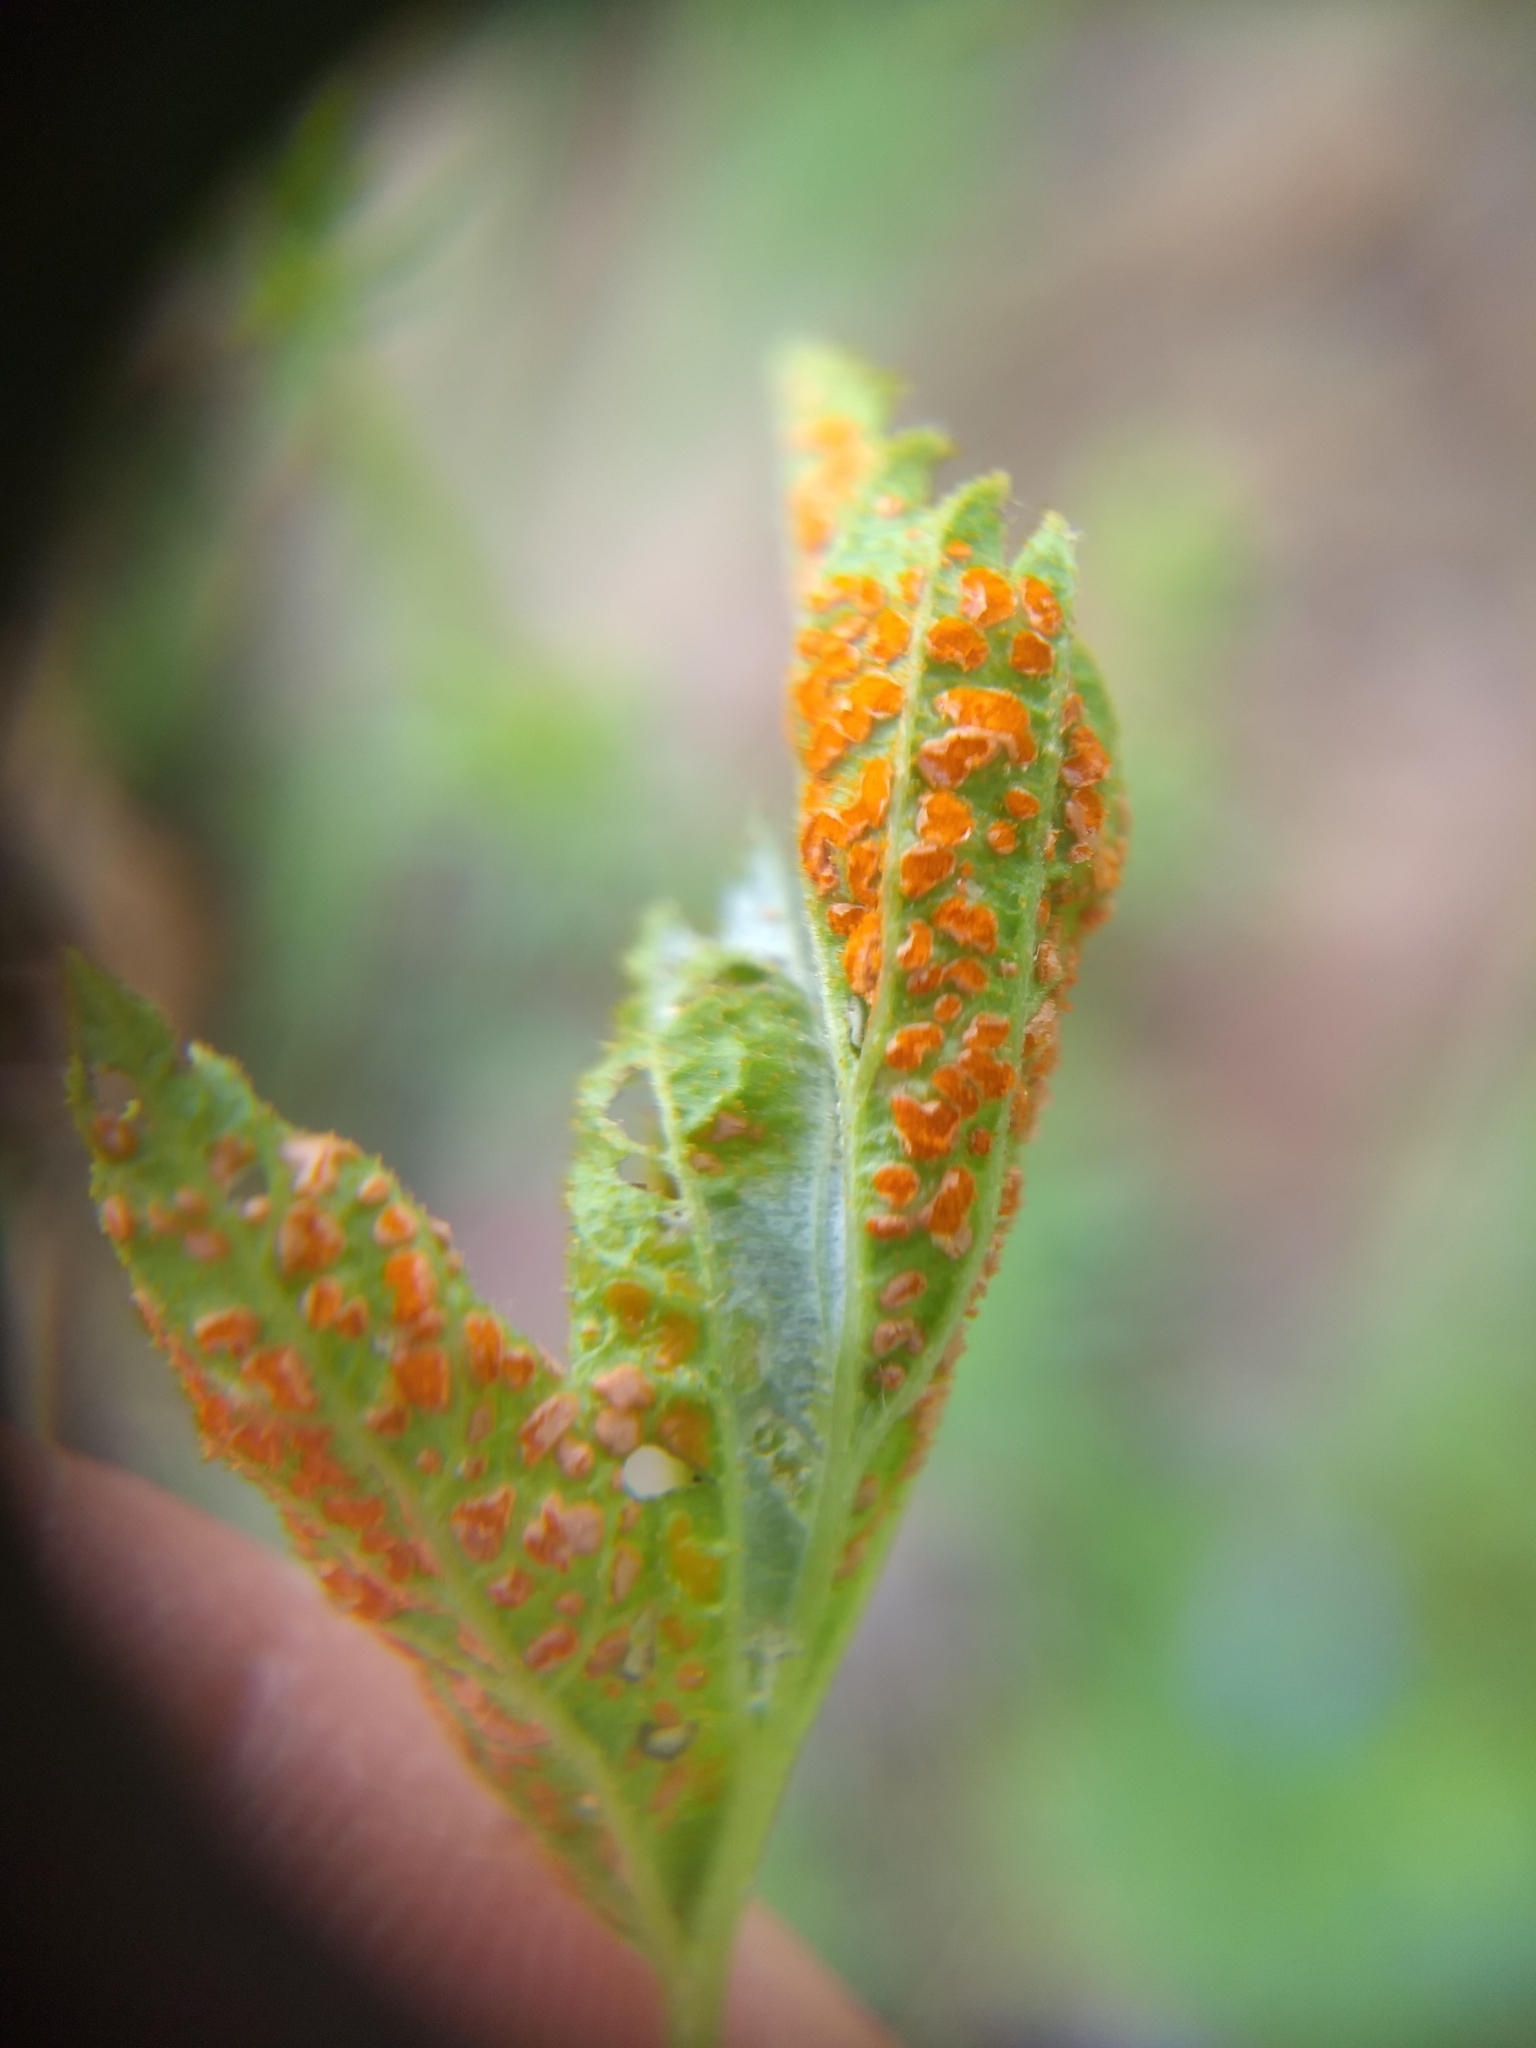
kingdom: Fungi
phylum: Basidiomycota
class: Pucciniomycetes
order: Pucciniales
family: Phragmidiaceae
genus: Arthuriomyces
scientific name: Arthuriomyces peckianus
